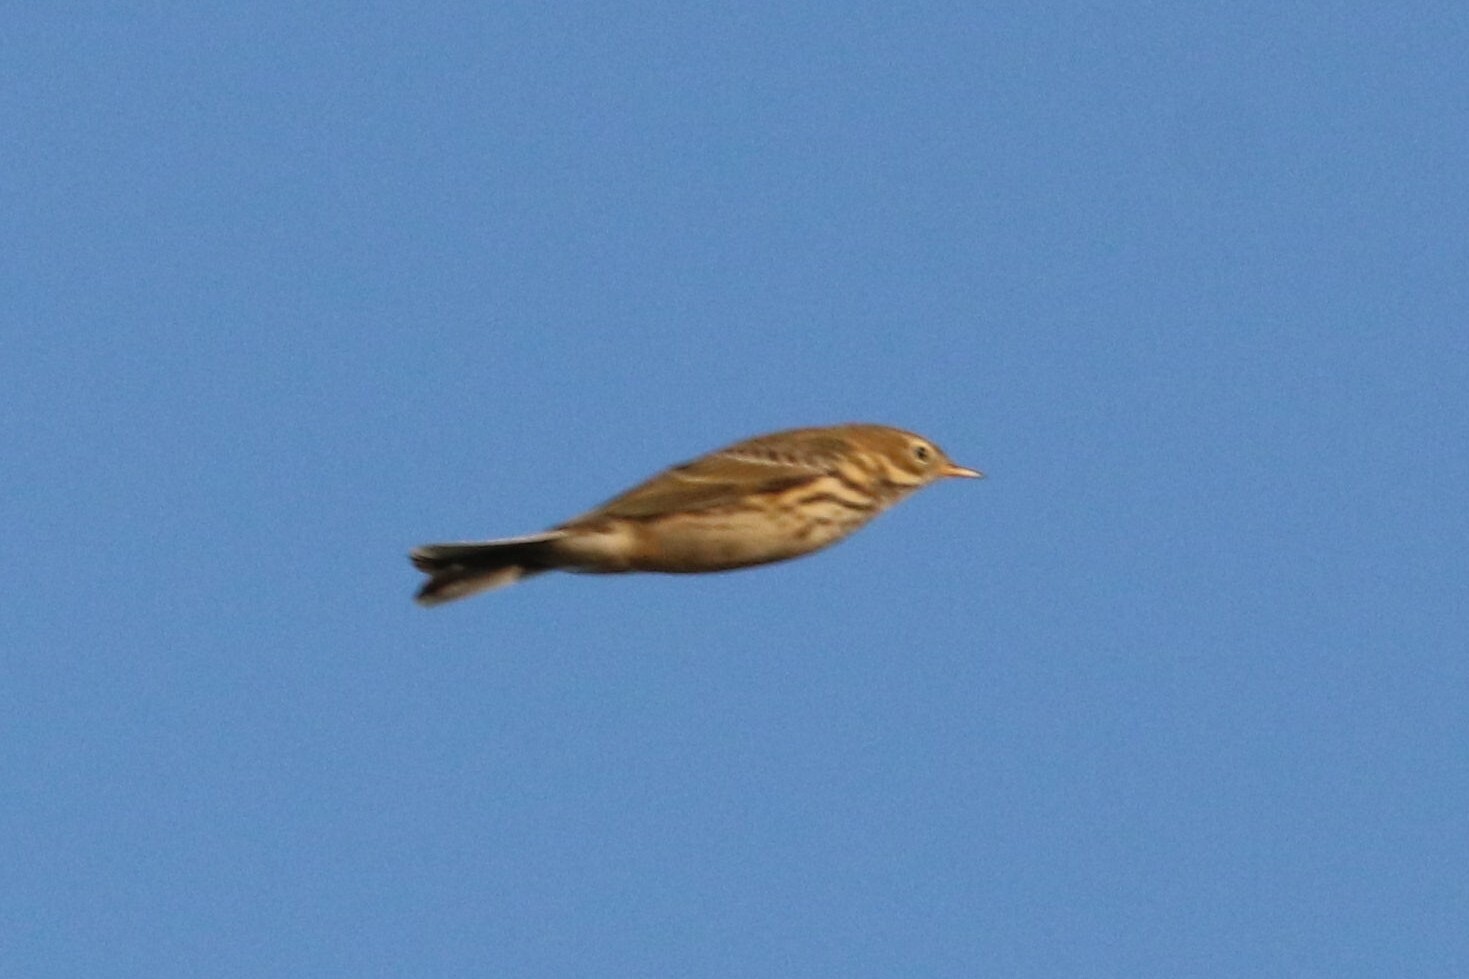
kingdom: Animalia
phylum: Chordata
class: Aves
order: Passeriformes
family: Motacillidae
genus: Anthus
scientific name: Anthus pratensis
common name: Meadow pipit
